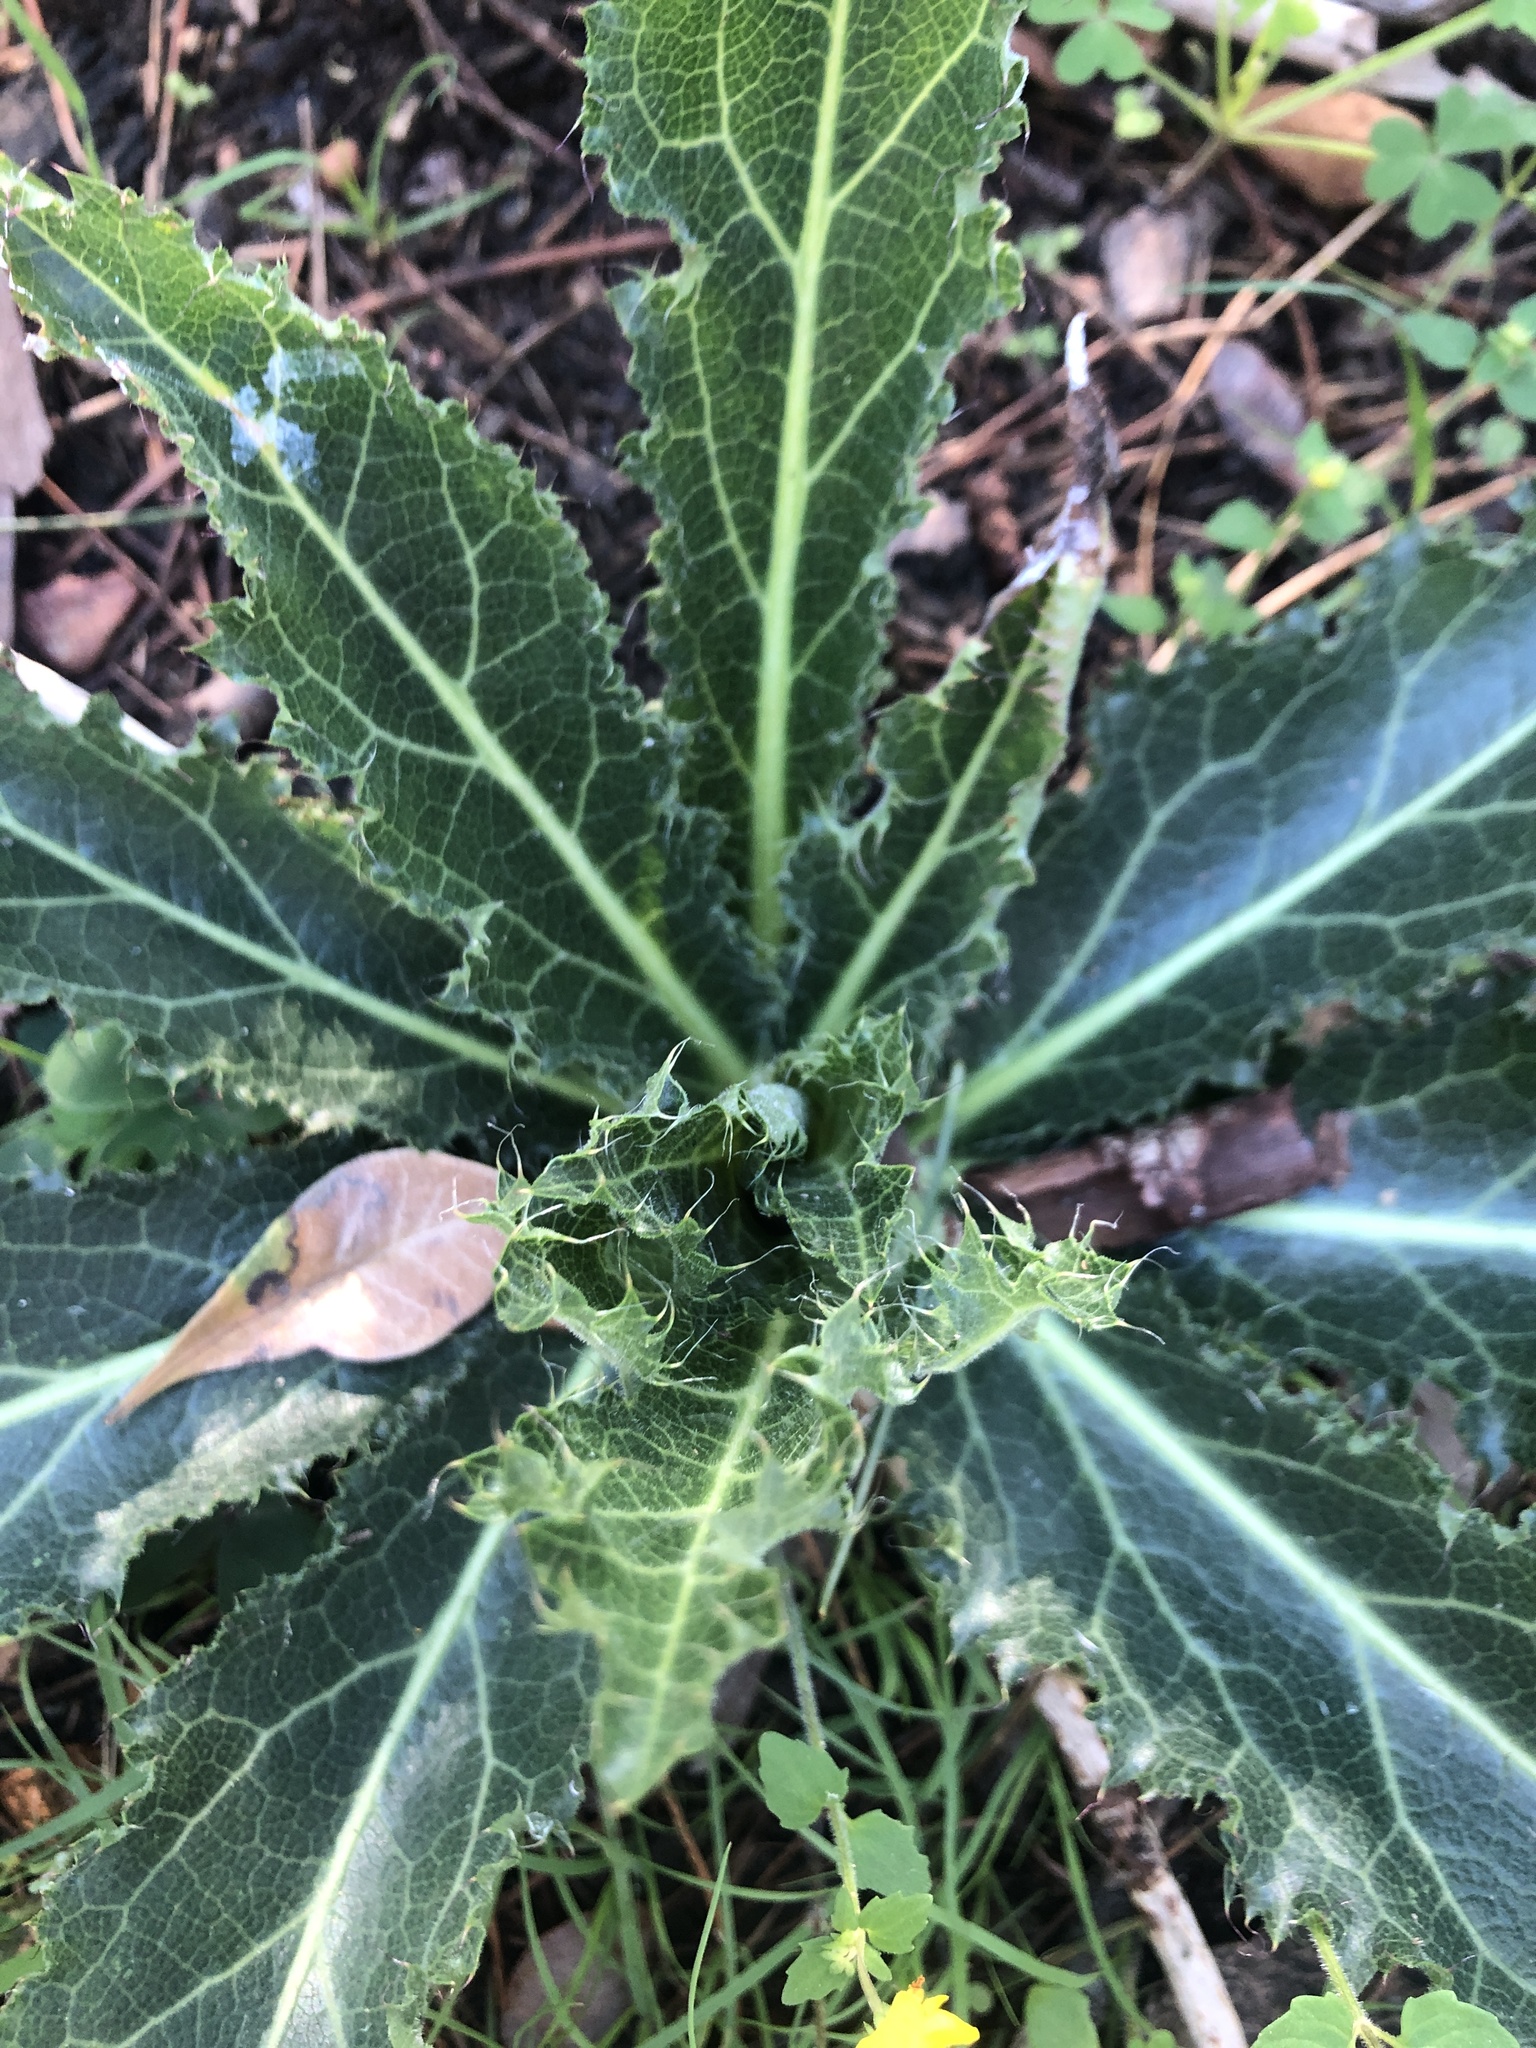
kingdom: Plantae
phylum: Tracheophyta
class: Magnoliopsida
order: Apiales
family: Apiaceae
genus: Lichtensteinia
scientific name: Lichtensteinia lacera
